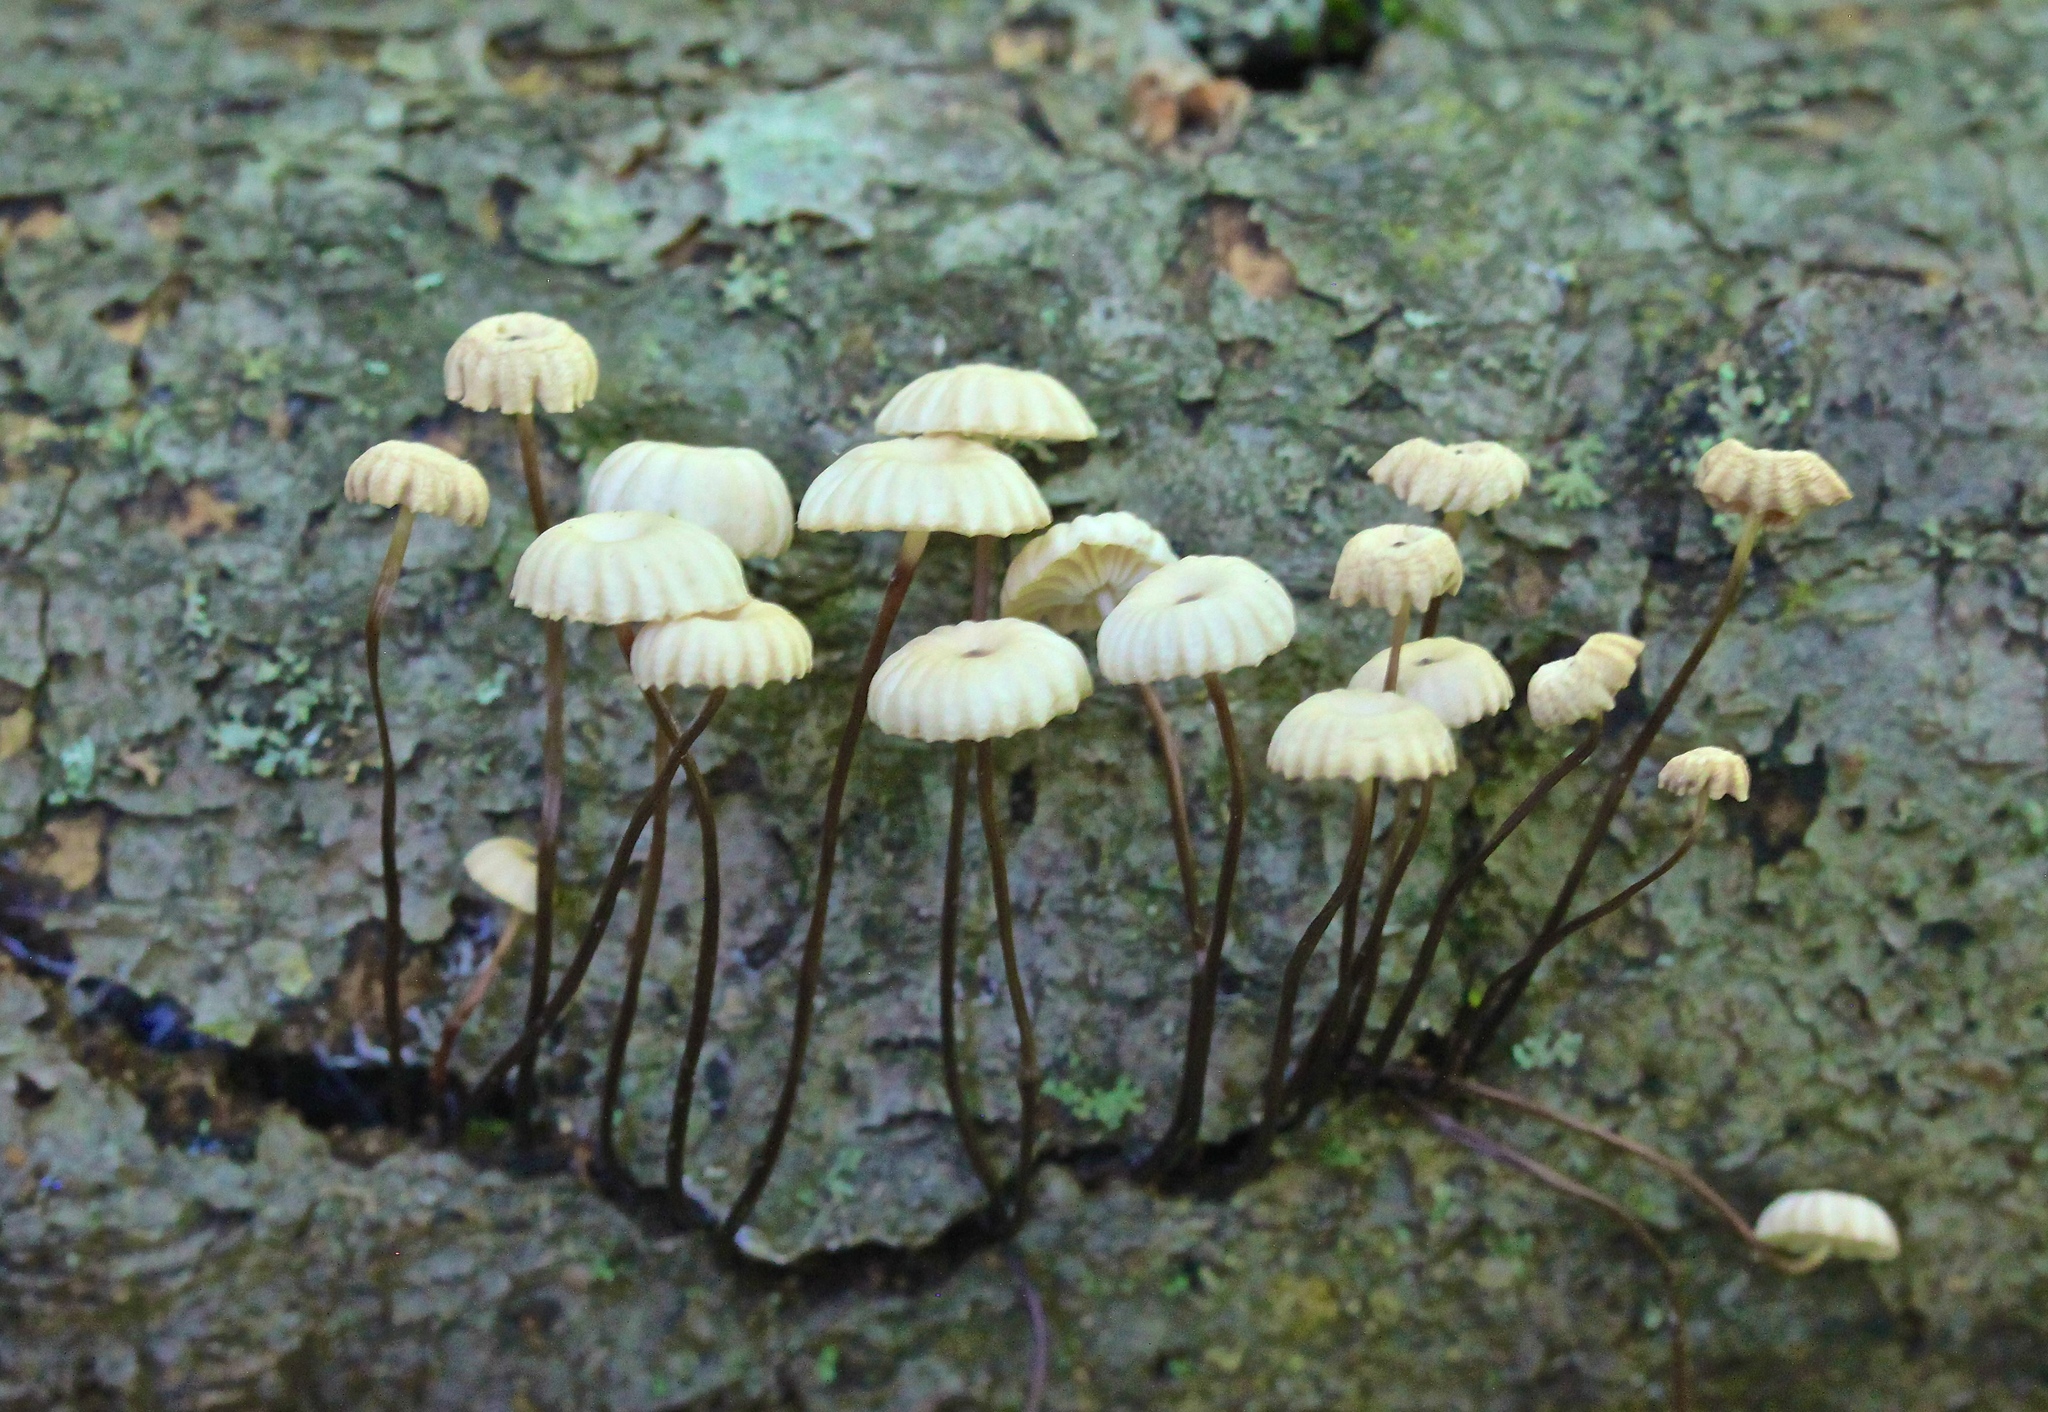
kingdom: Fungi
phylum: Basidiomycota
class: Agaricomycetes
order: Agaricales
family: Marasmiaceae
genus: Marasmius
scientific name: Marasmius rotula
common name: Collared parachute
